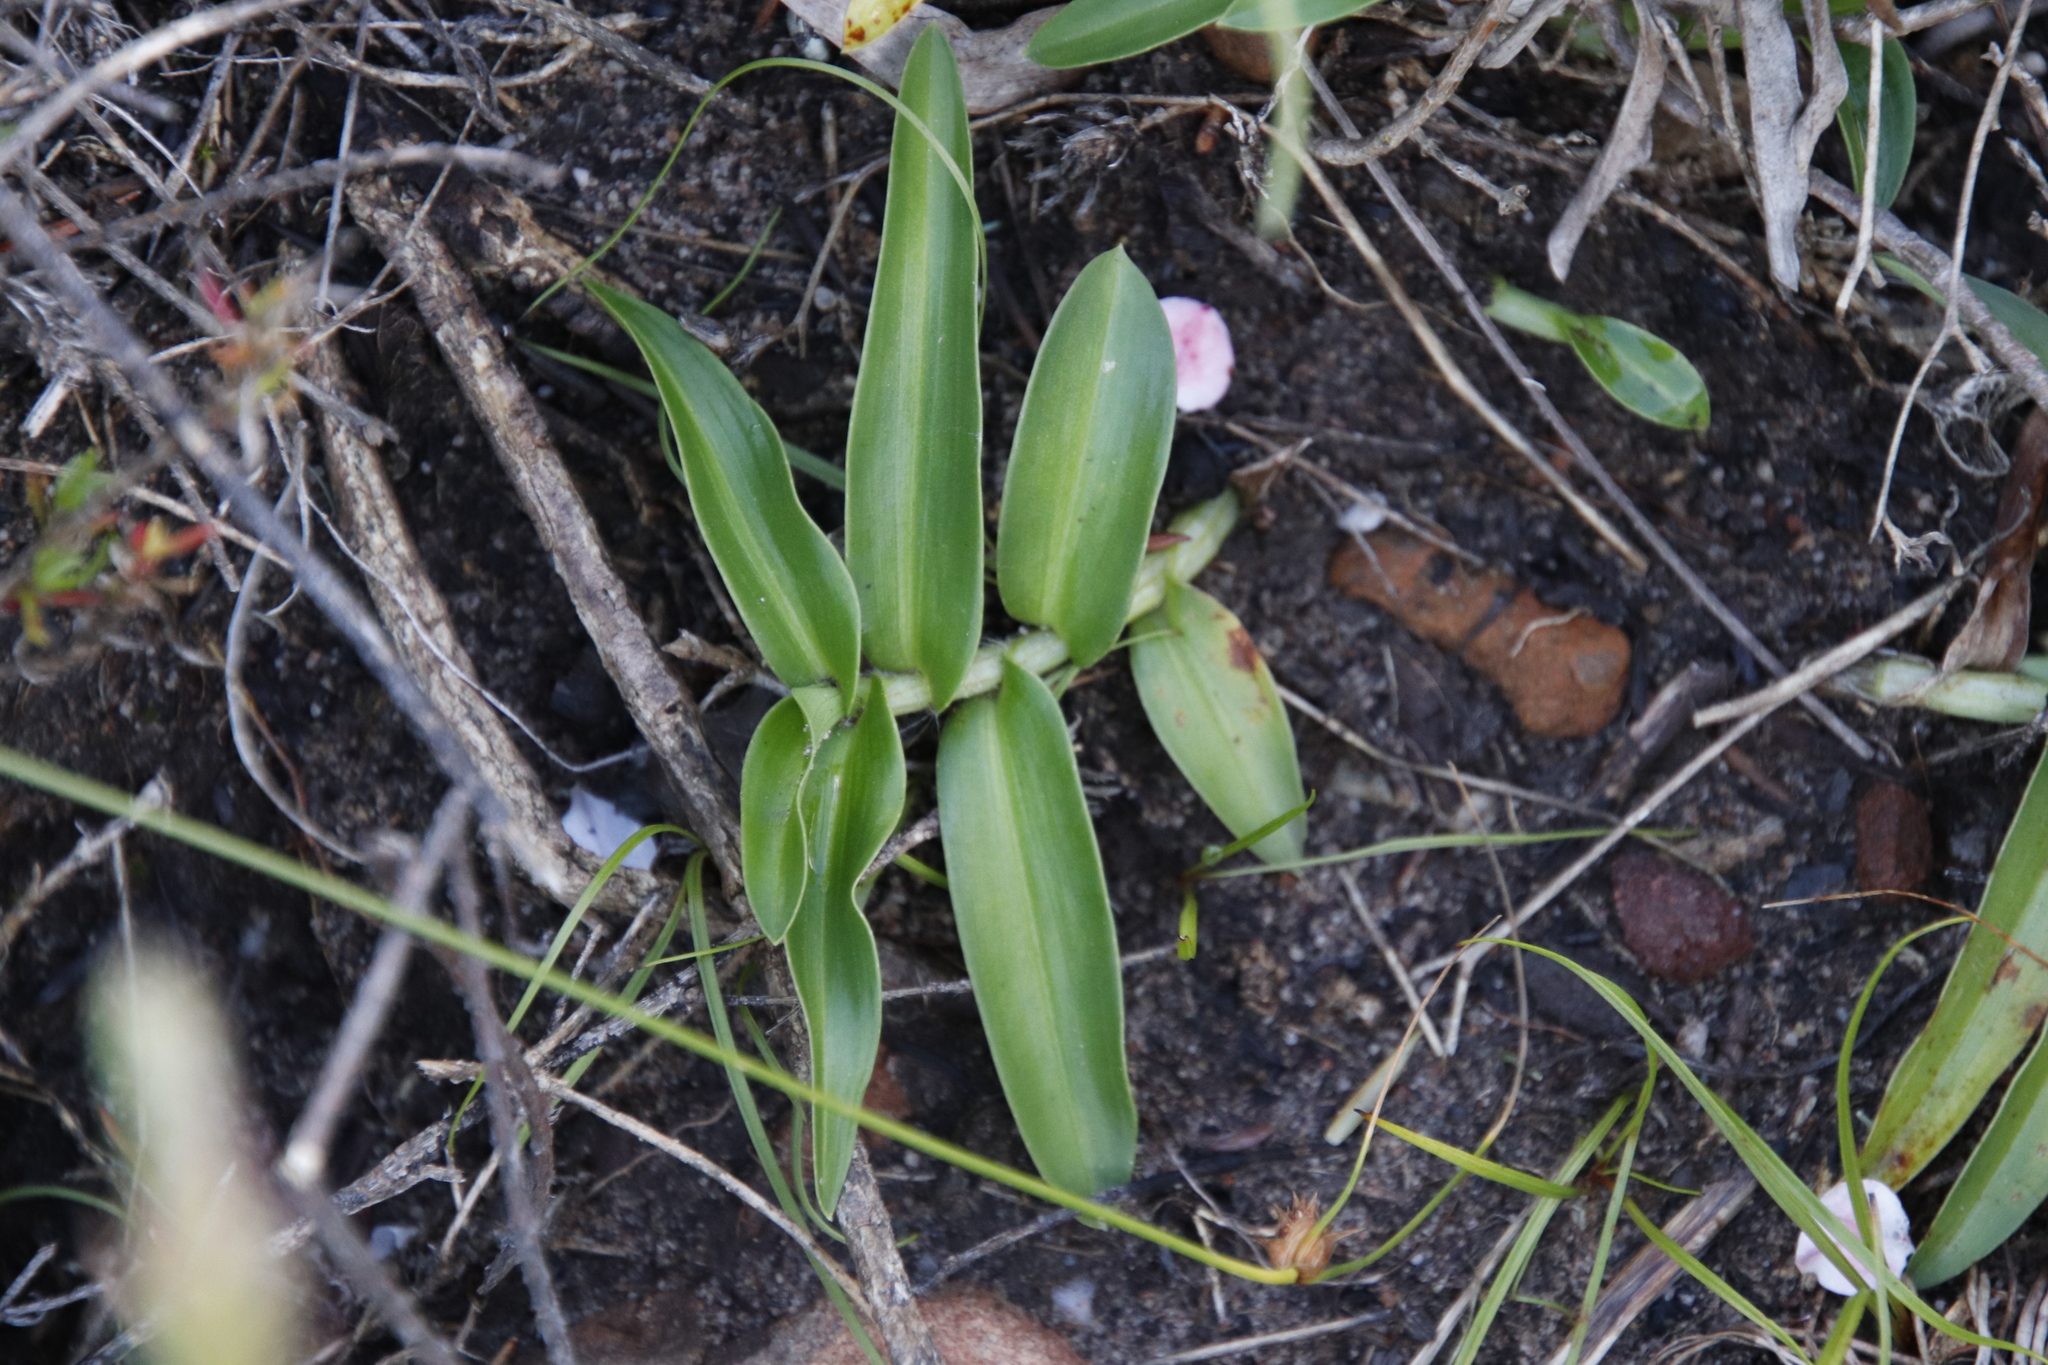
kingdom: Plantae
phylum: Tracheophyta
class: Liliopsida
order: Commelinales
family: Commelinaceae
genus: Commelina
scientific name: Commelina africana
